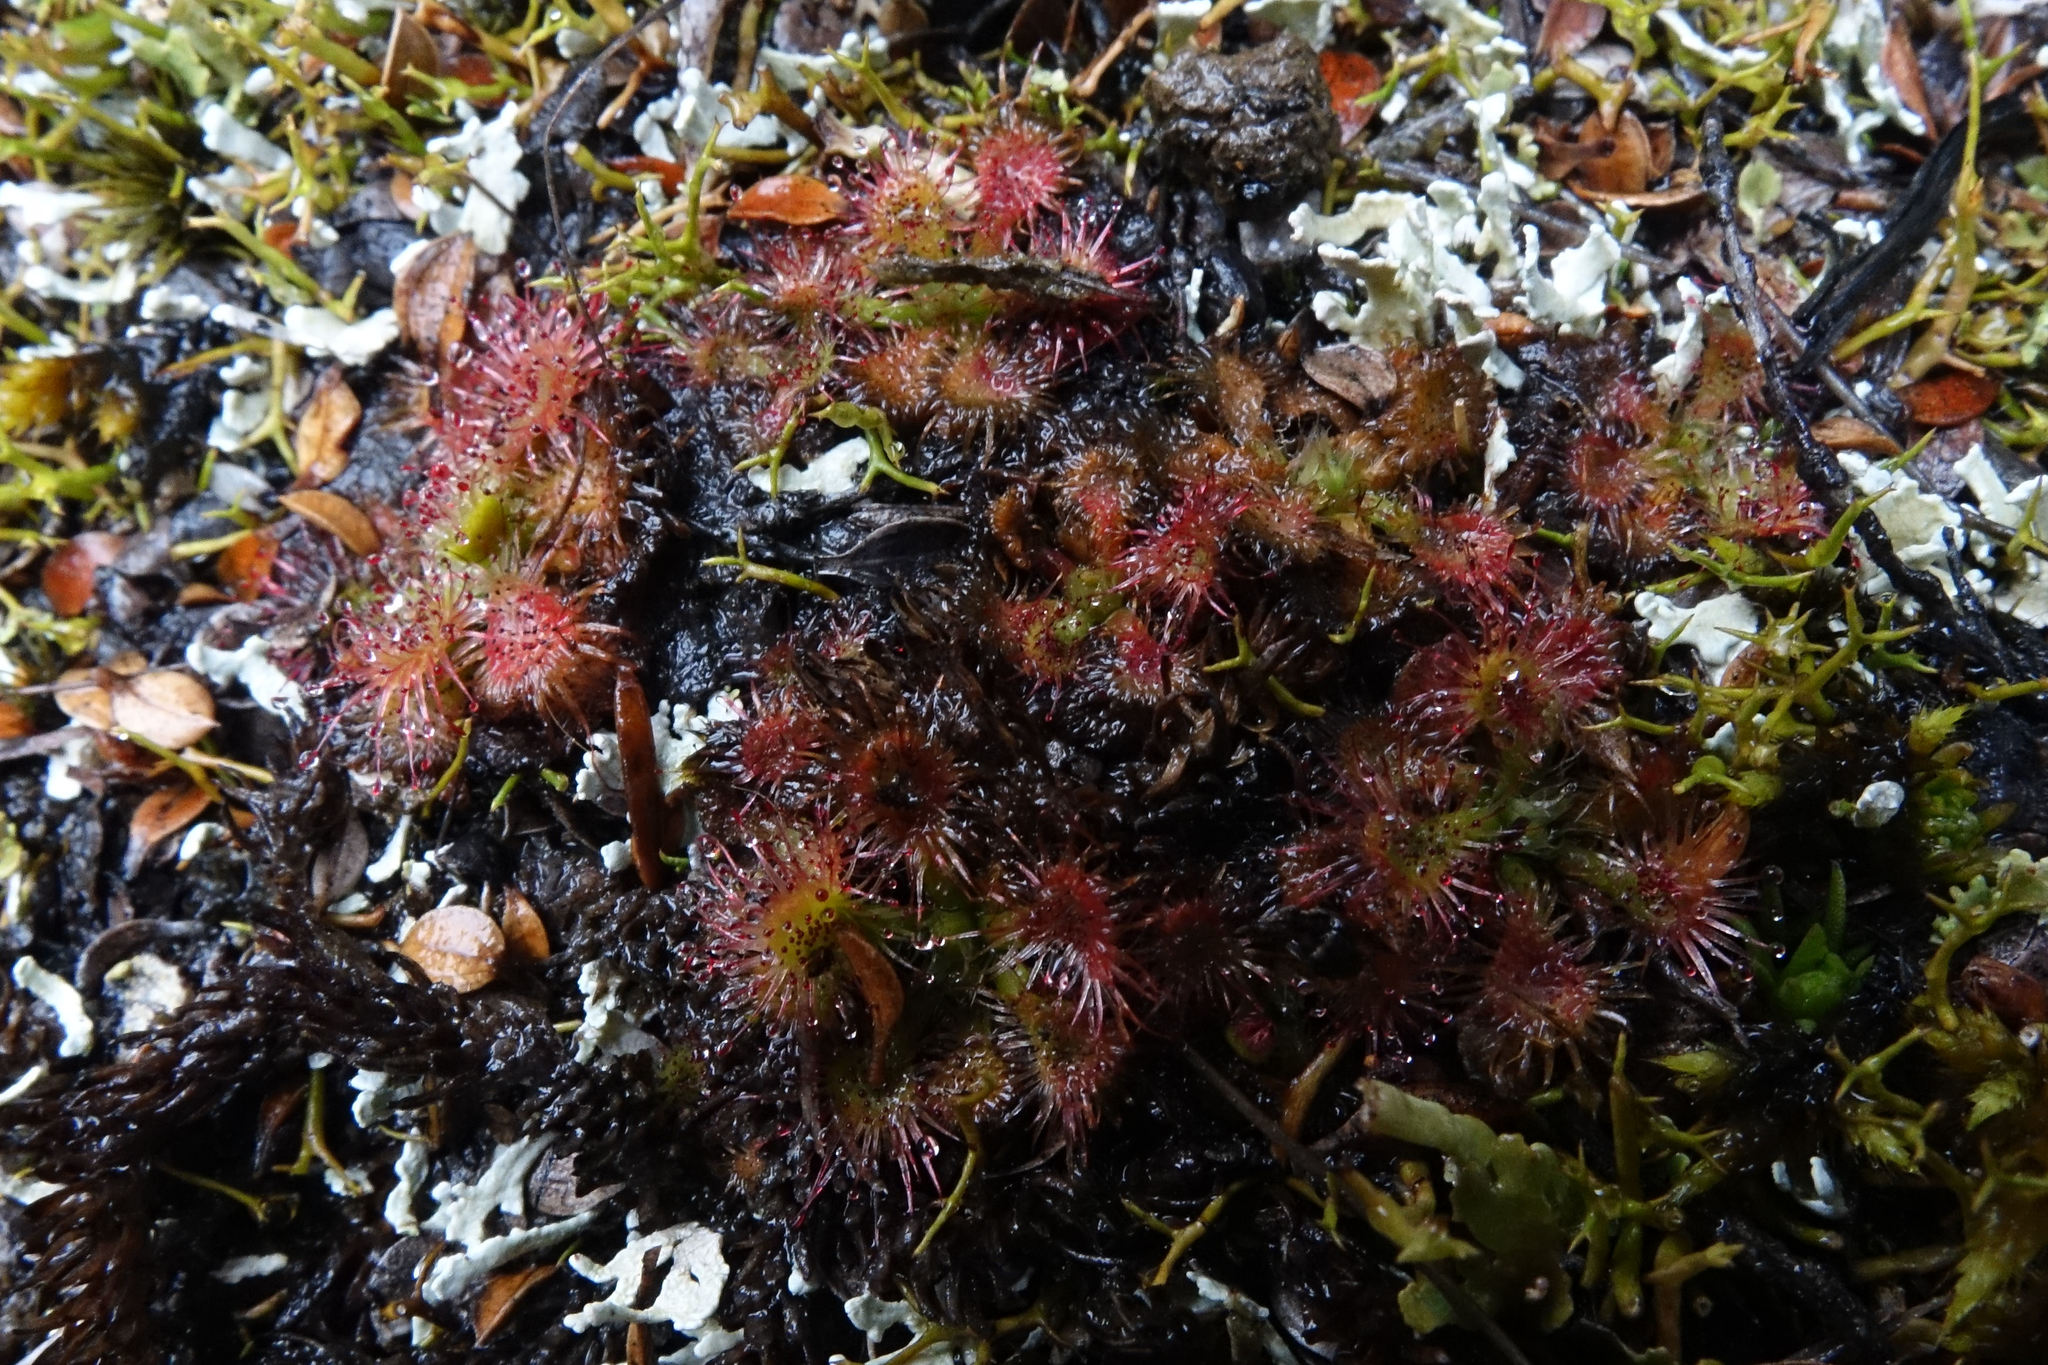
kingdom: Plantae
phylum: Tracheophyta
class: Magnoliopsida
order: Caryophyllales
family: Droseraceae
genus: Drosera
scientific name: Drosera spatulata
